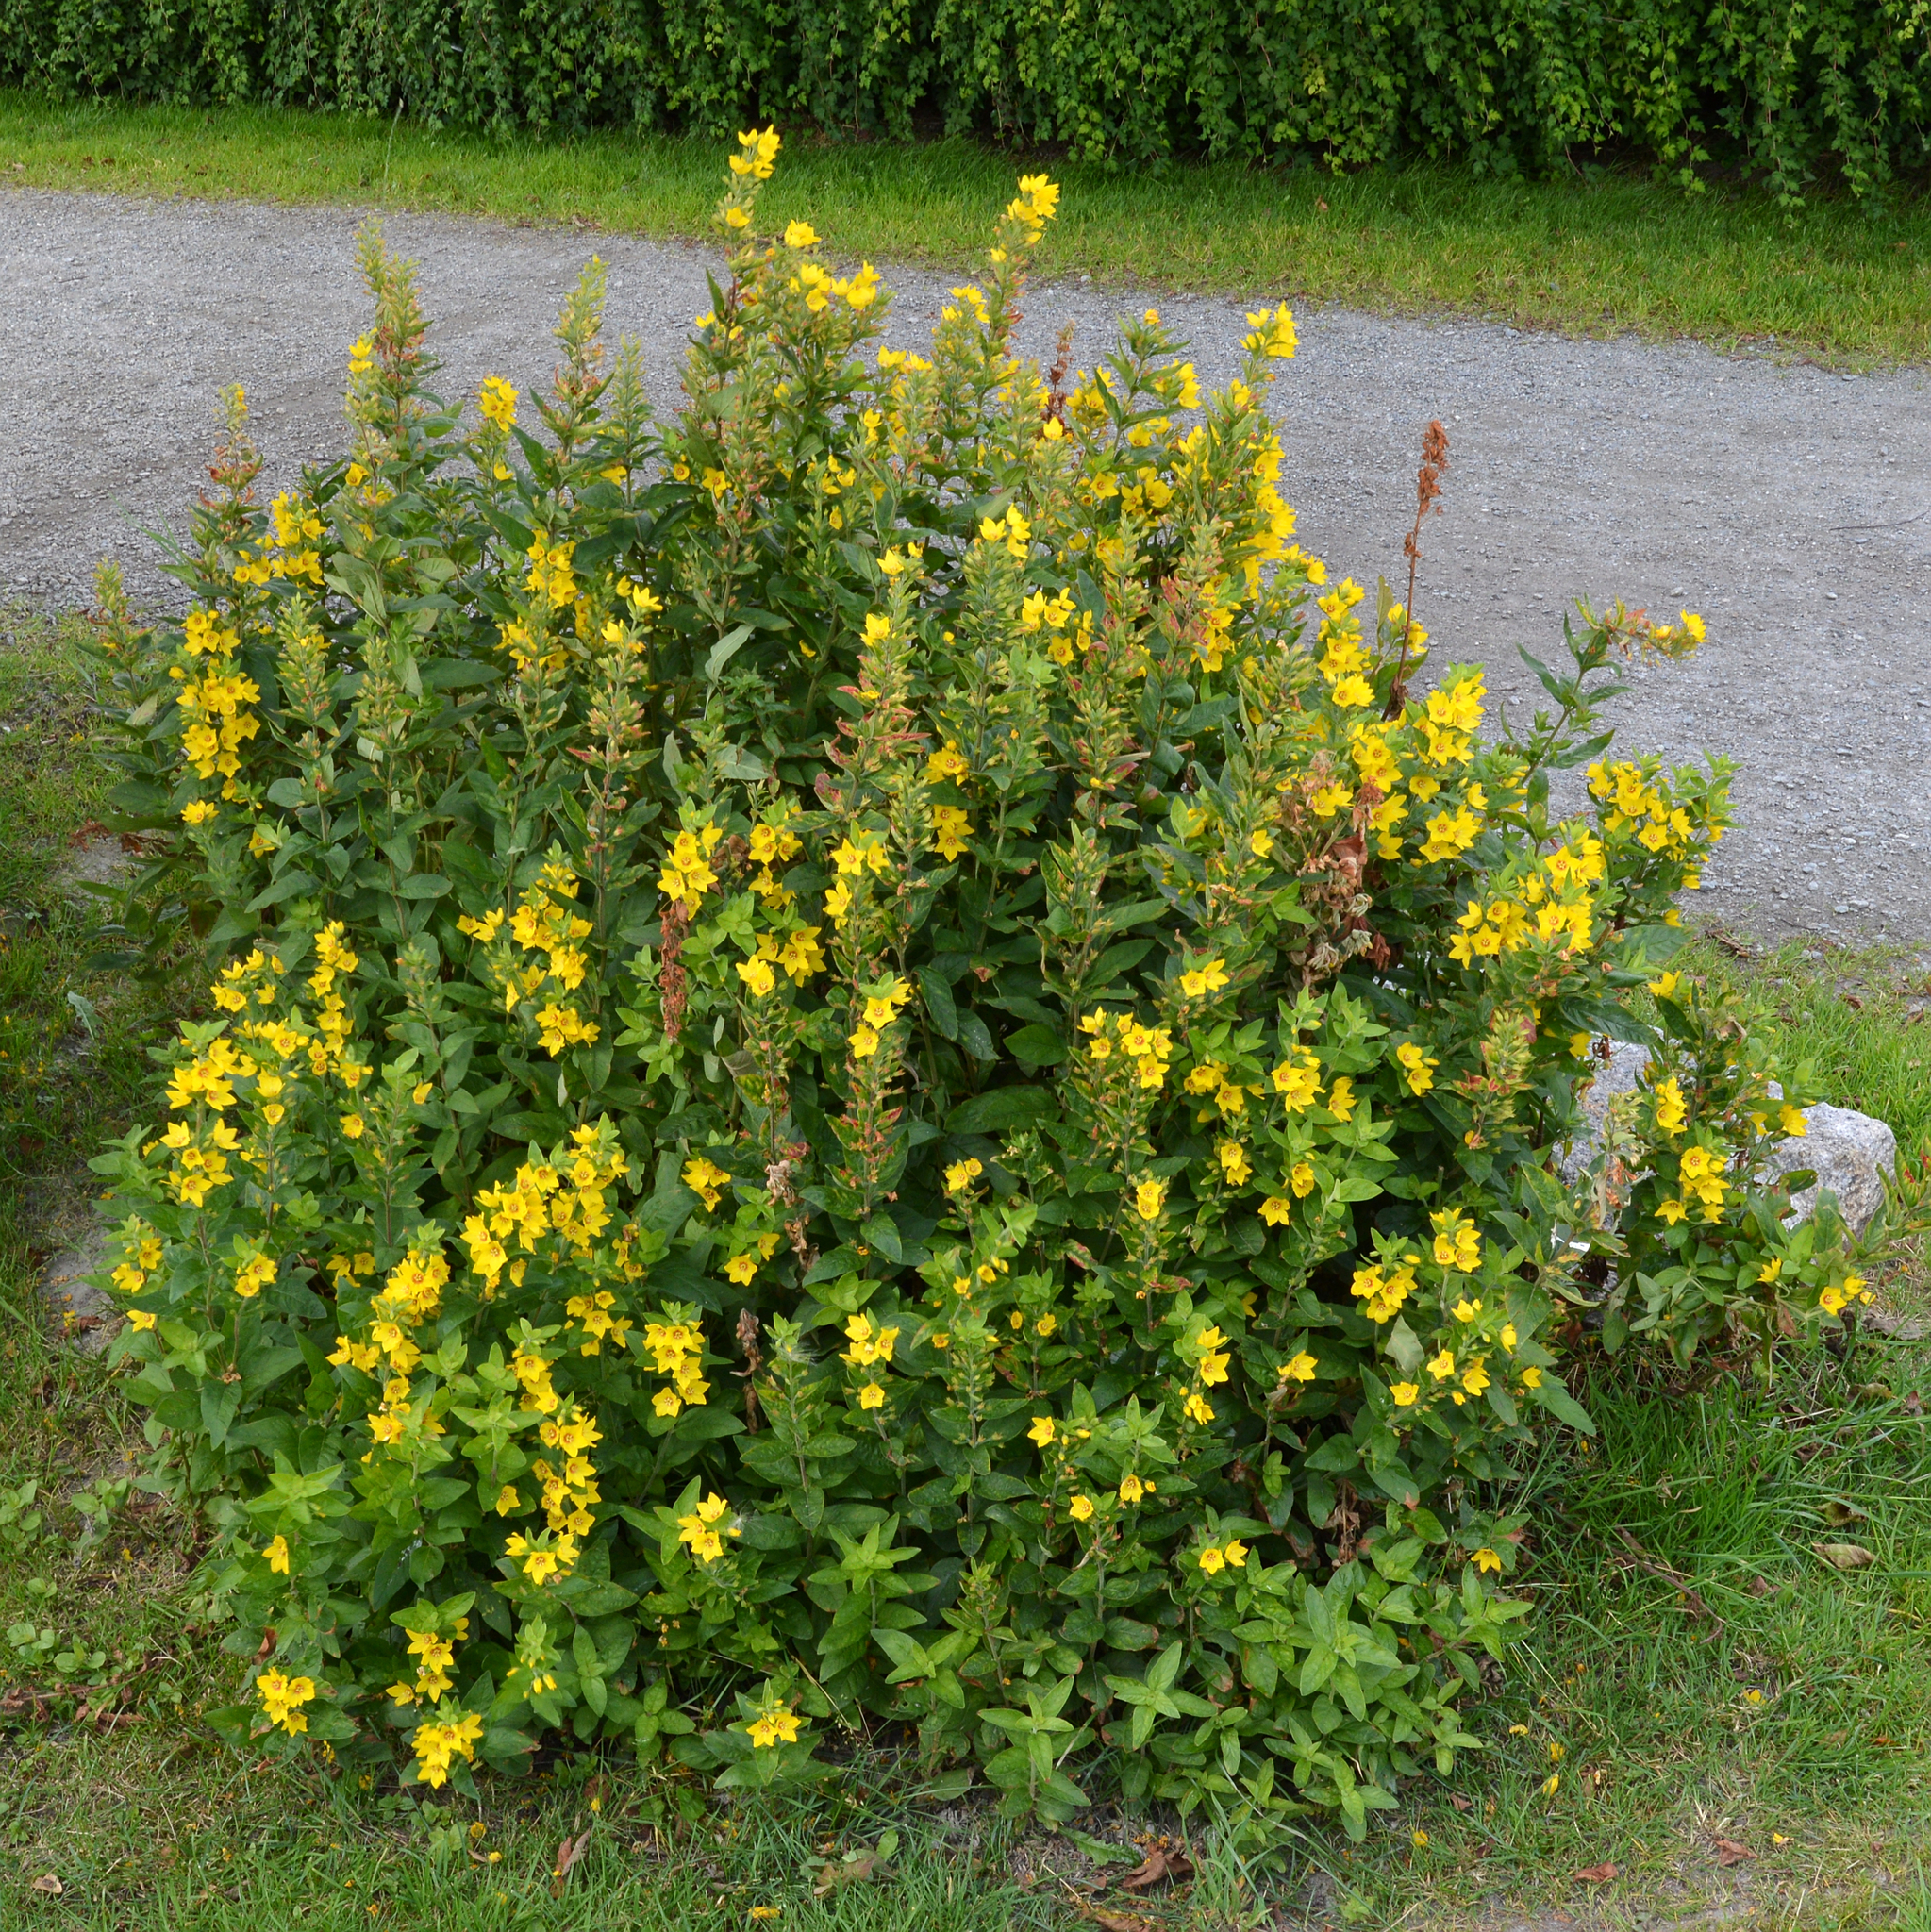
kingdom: Plantae
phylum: Tracheophyta
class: Magnoliopsida
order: Ericales
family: Primulaceae
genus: Lysimachia
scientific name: Lysimachia punctata
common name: Dotted loosestrife
